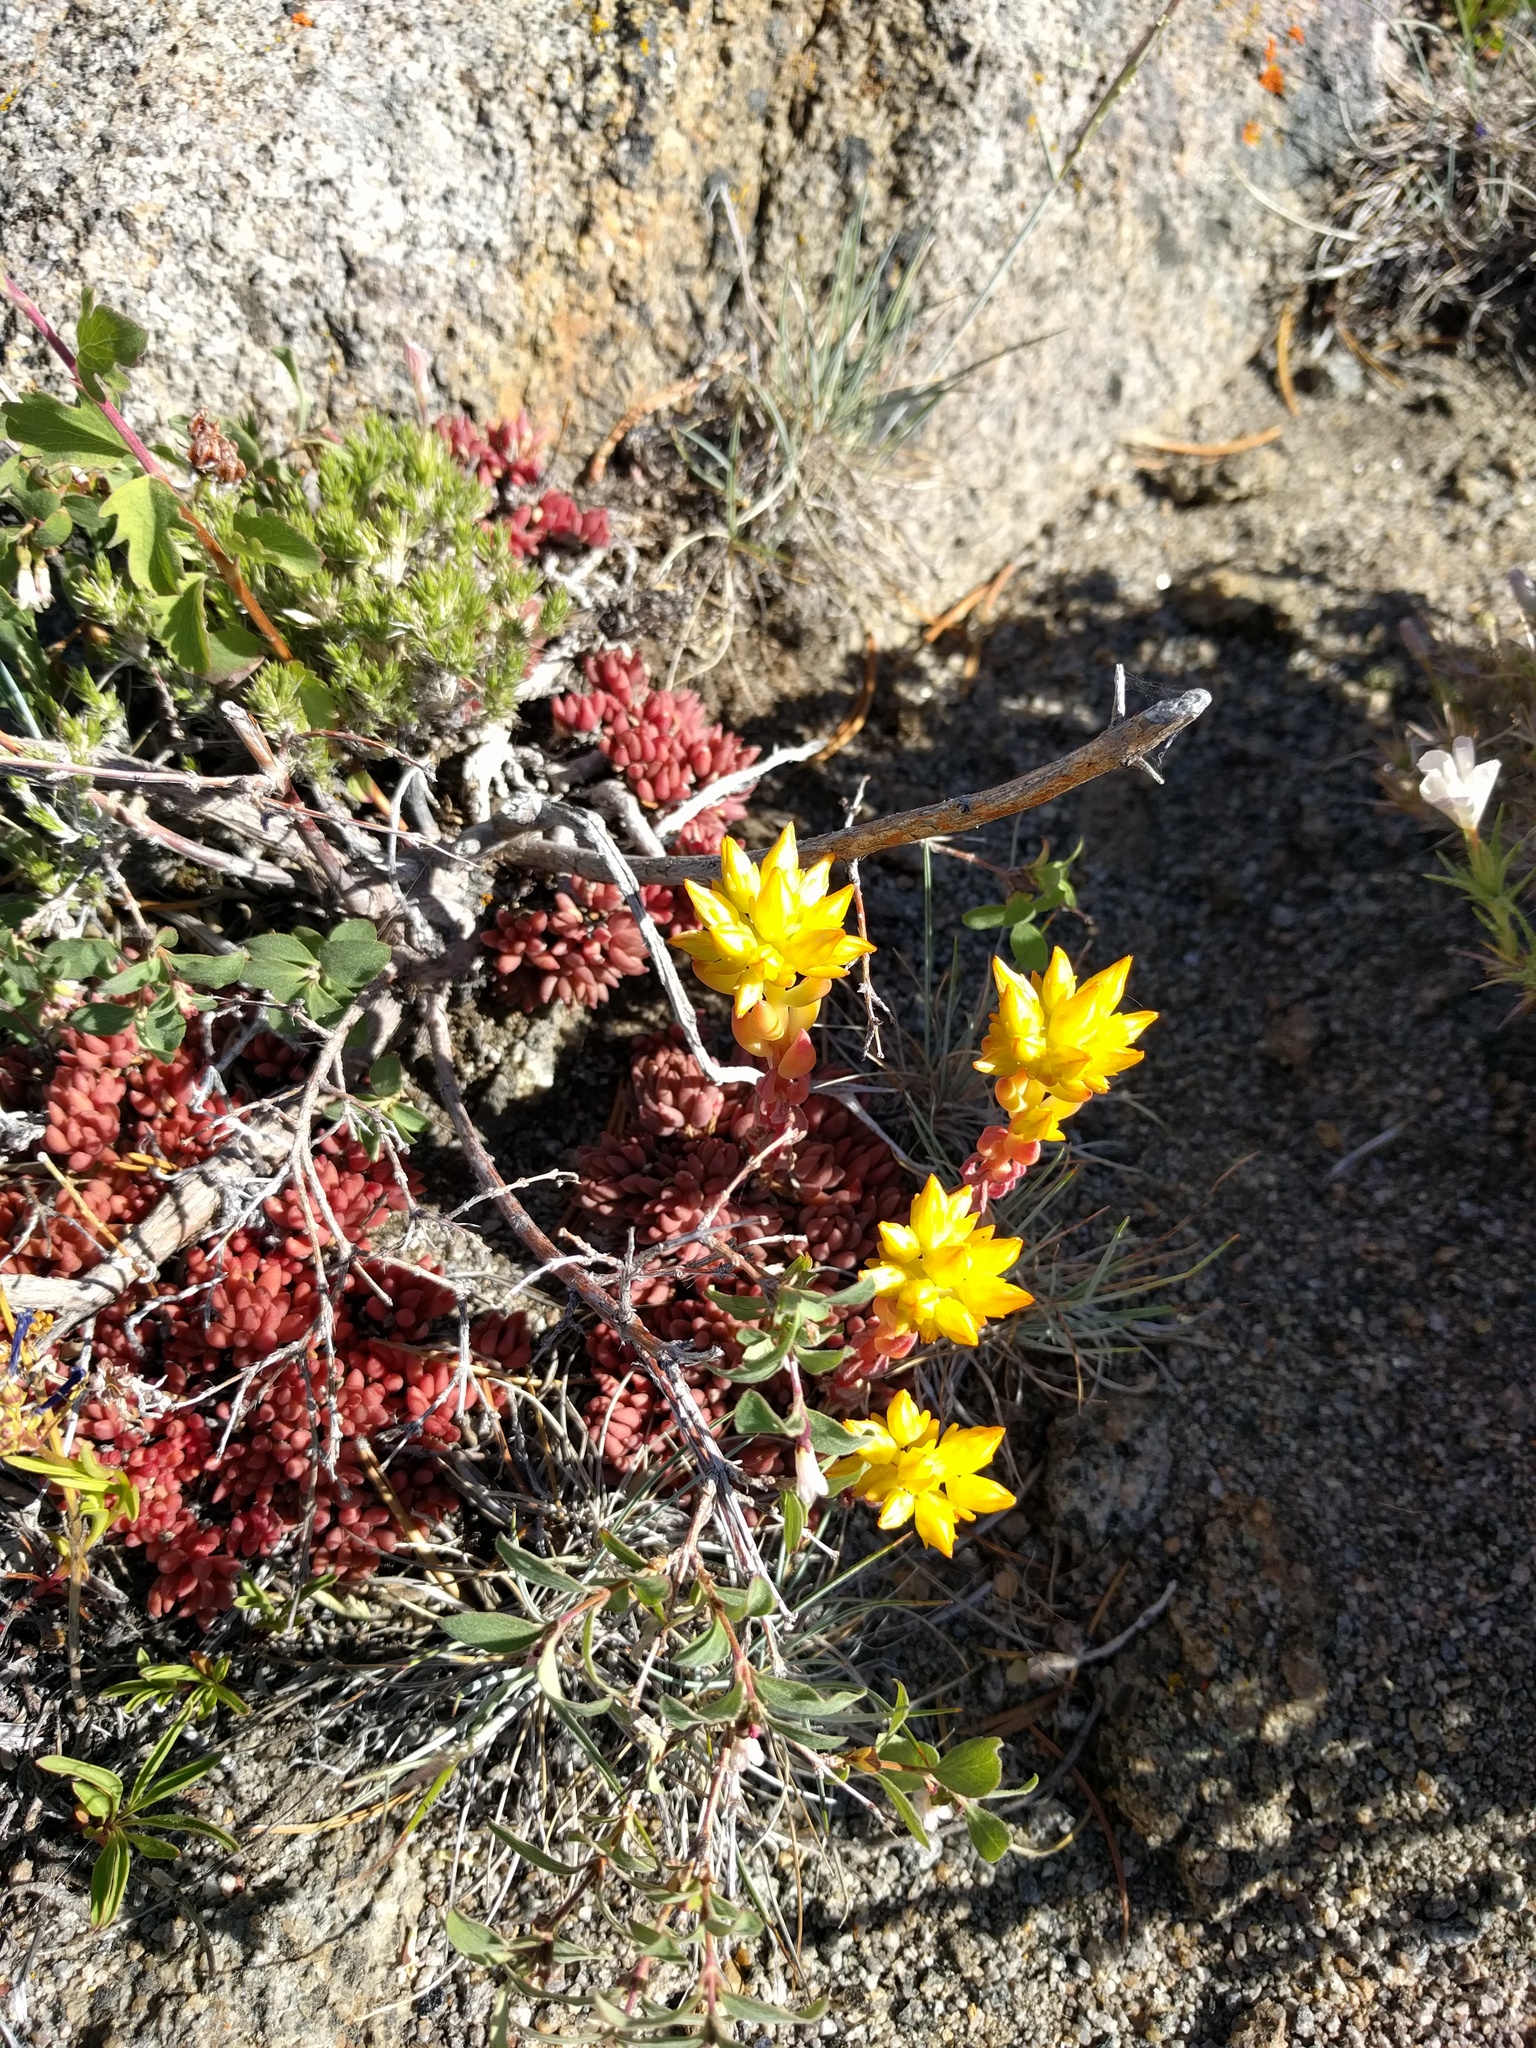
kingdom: Plantae
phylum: Tracheophyta
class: Magnoliopsida
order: Saxifragales
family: Crassulaceae
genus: Sedum
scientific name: Sedum lanceolatum
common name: Common stonecrop
